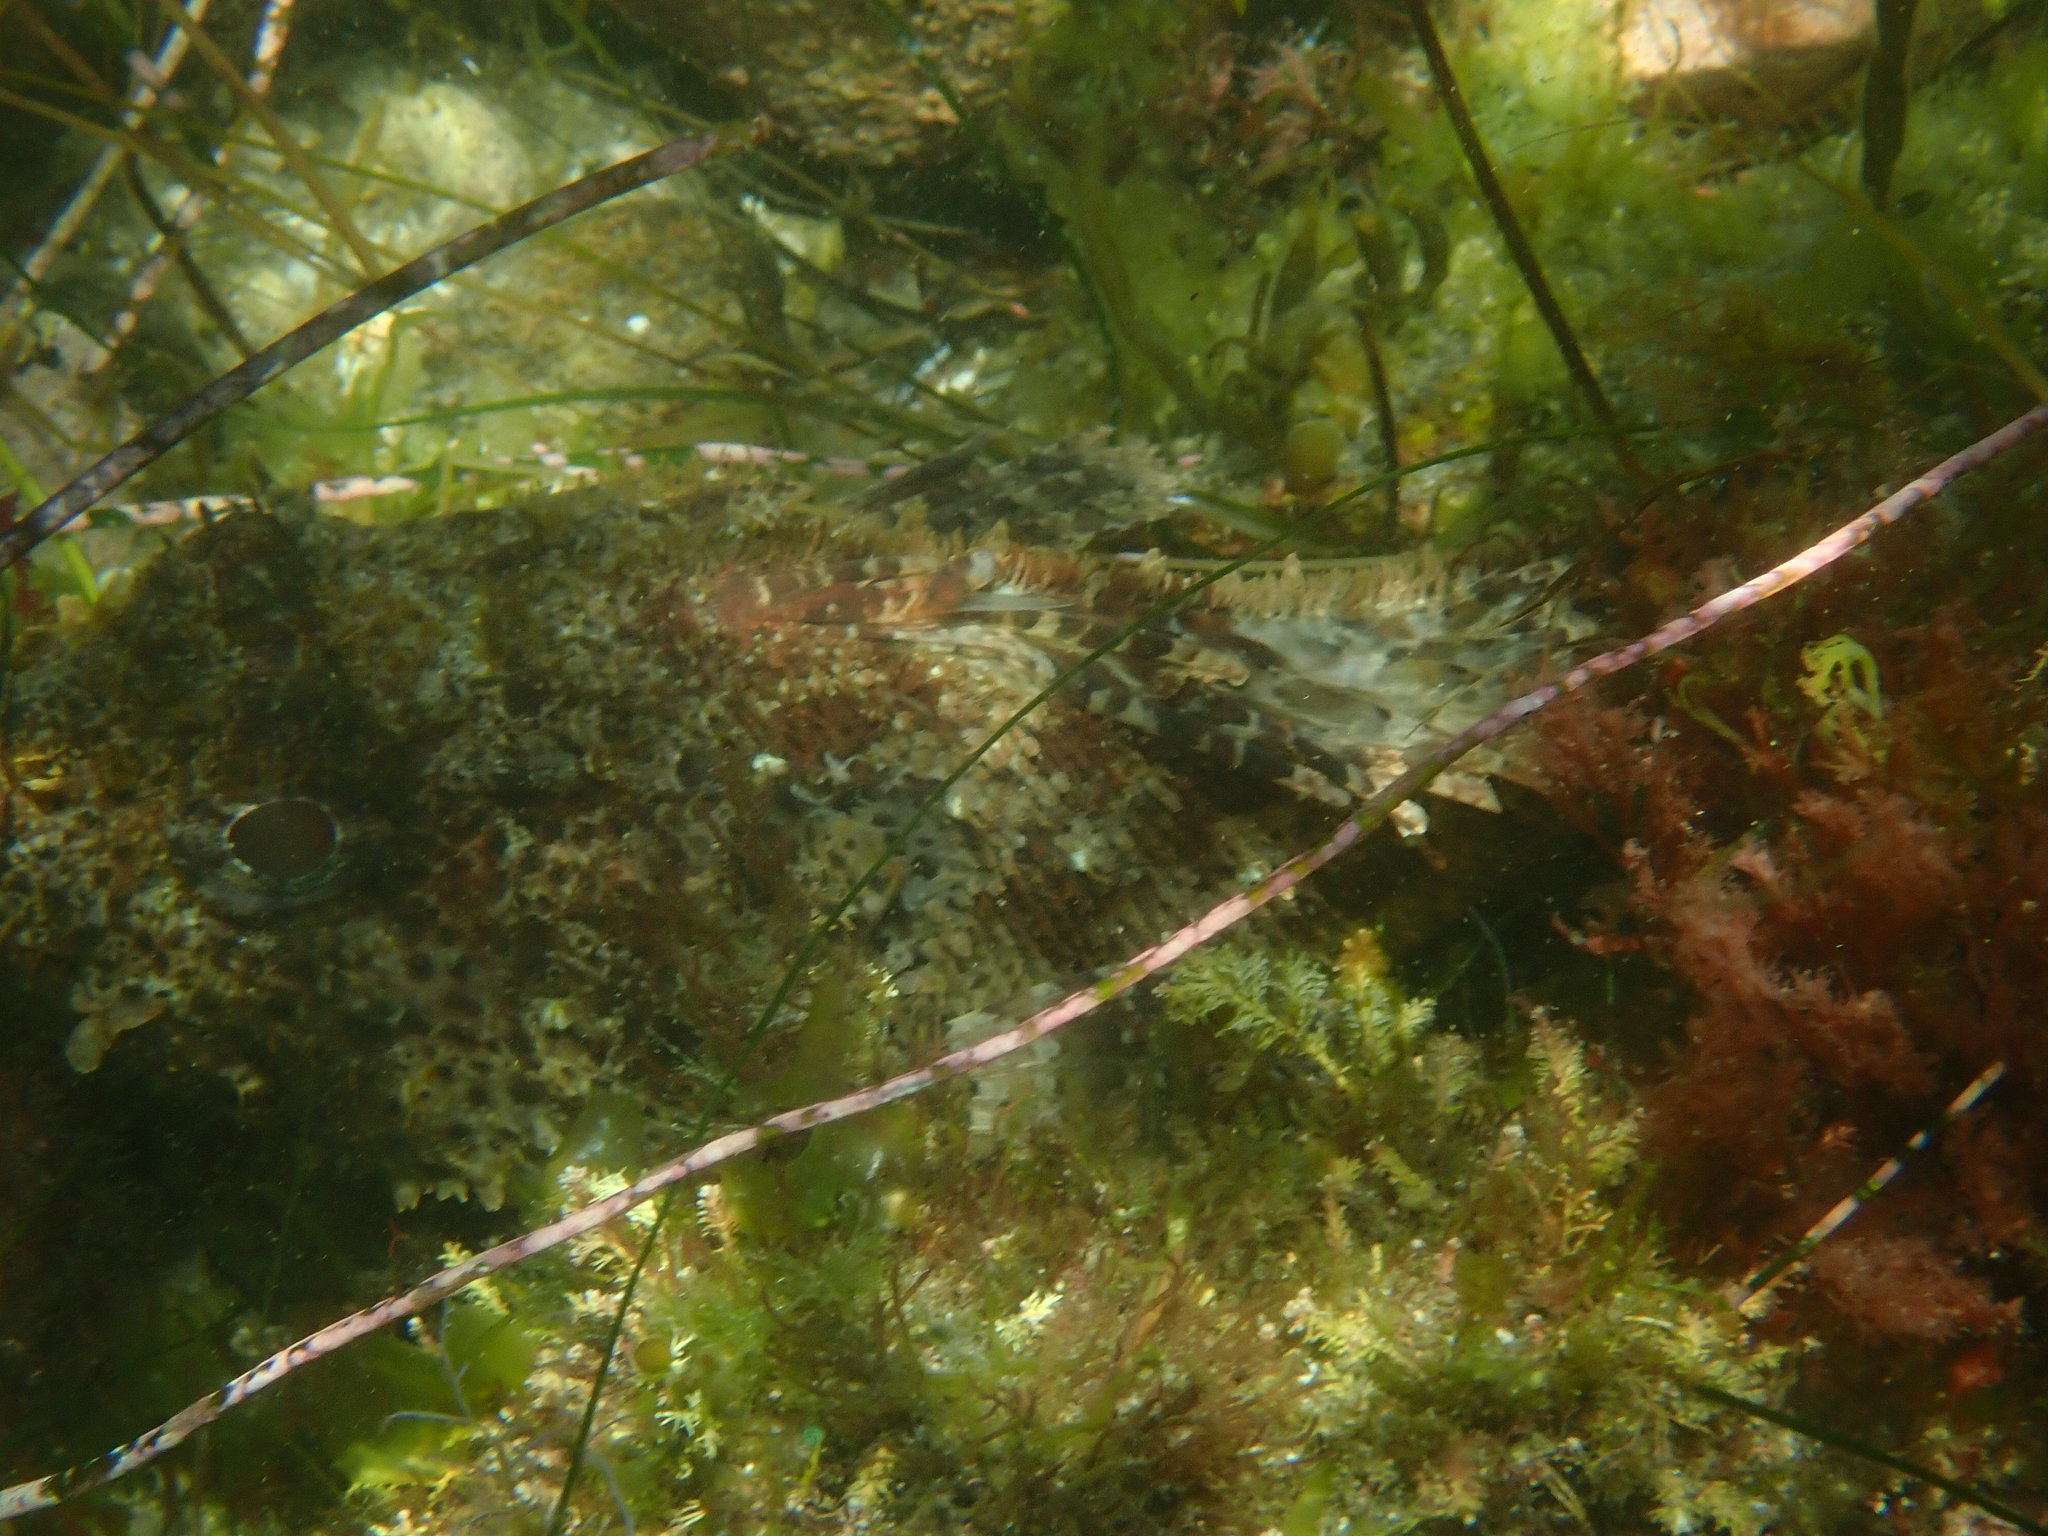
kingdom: Animalia
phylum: Chordata
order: Scorpaeniformes
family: Scorpaenidae
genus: Scorpaena
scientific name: Scorpaena guttata
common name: California scorpionfish
